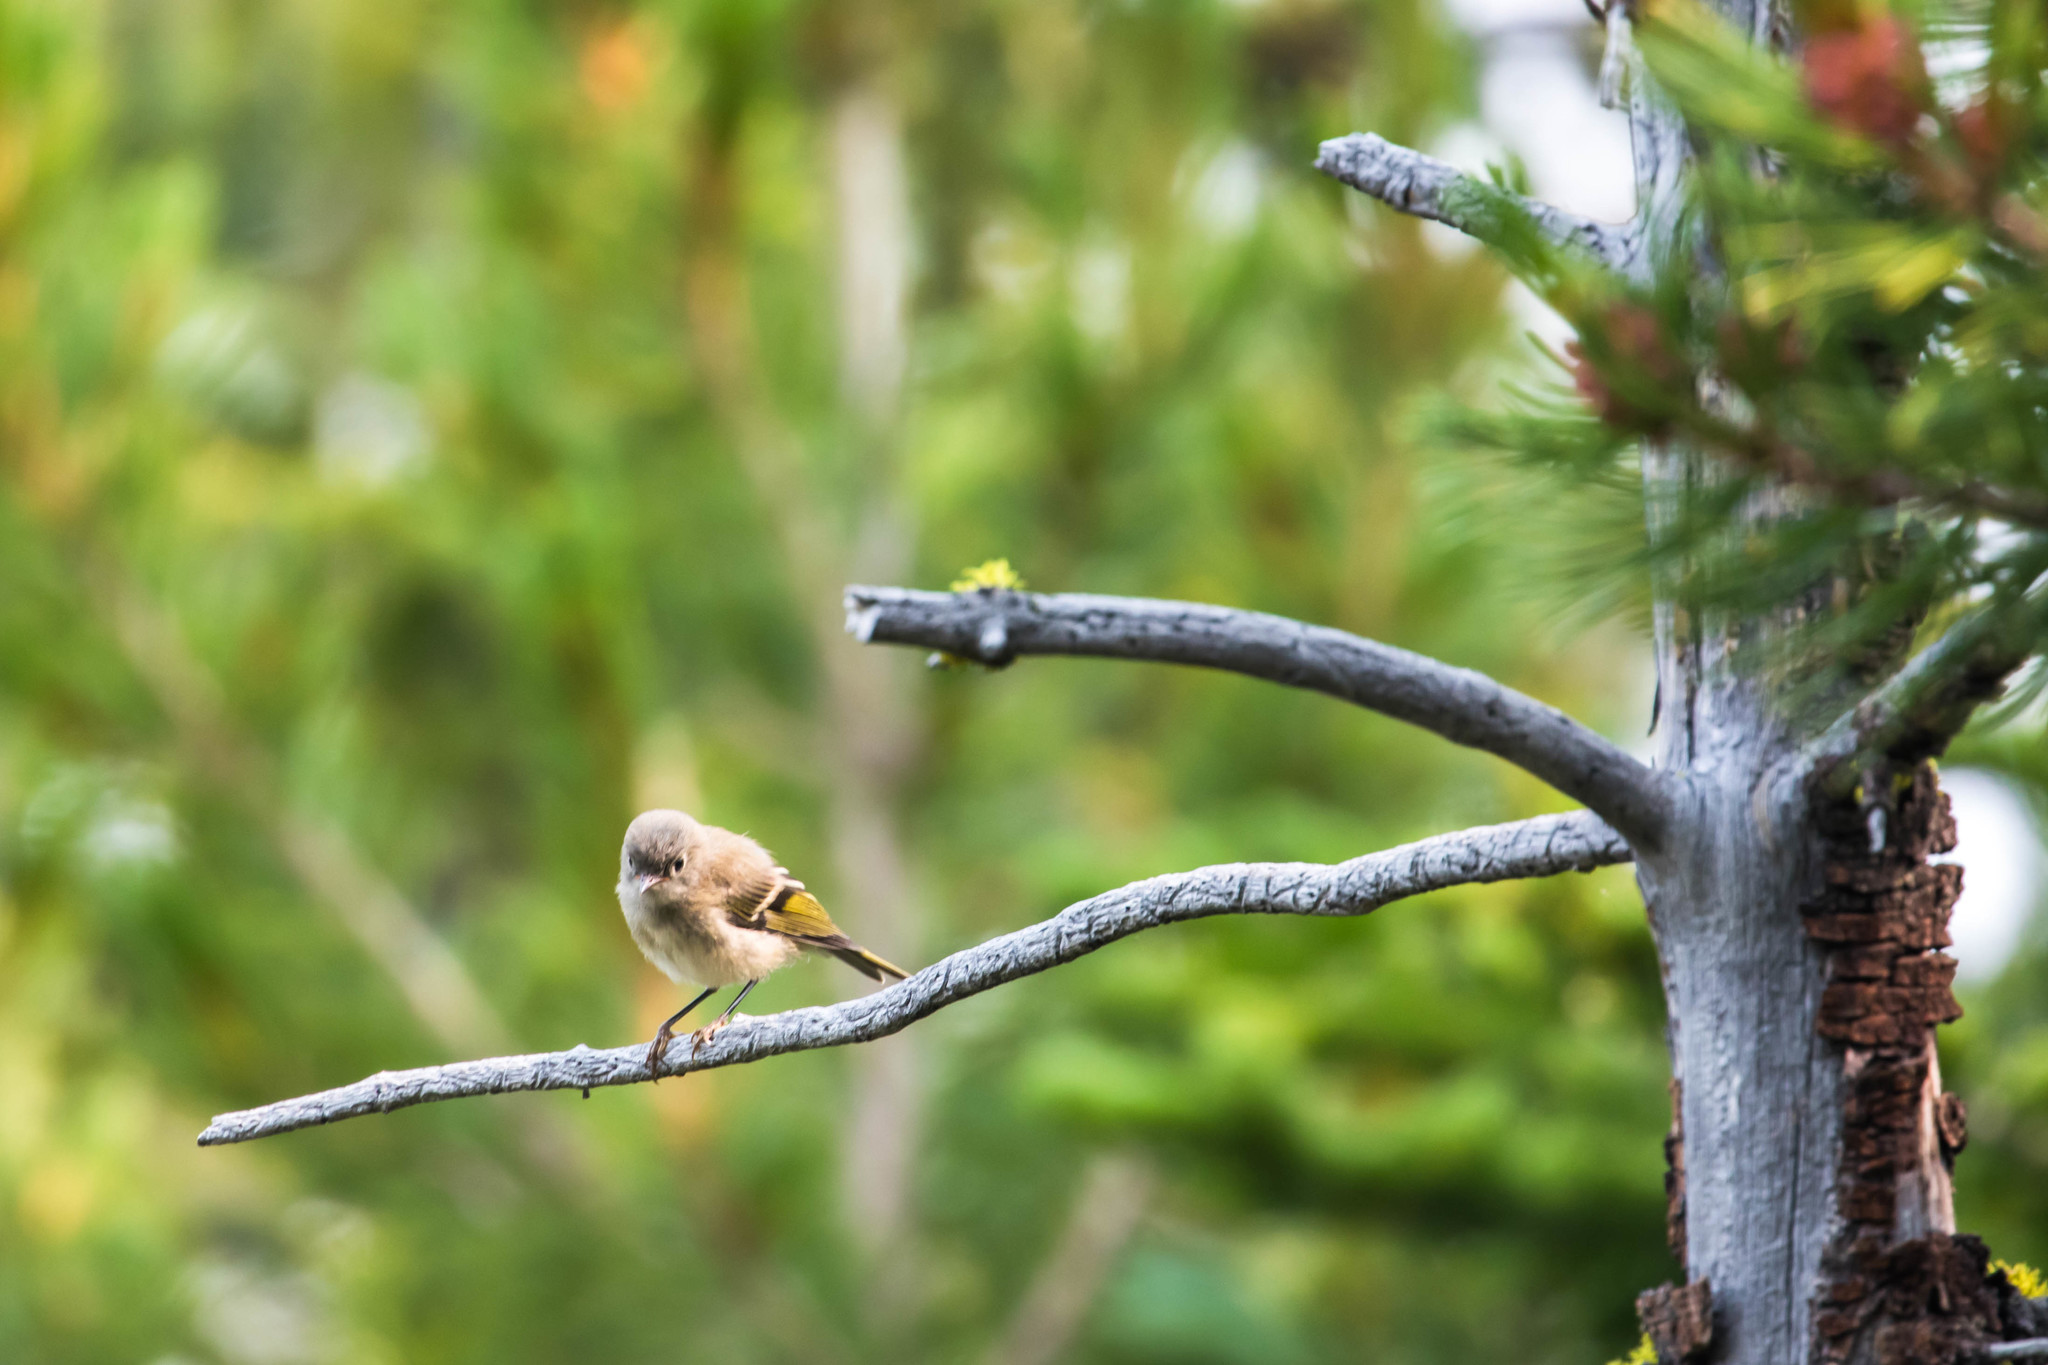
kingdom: Animalia
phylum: Chordata
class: Aves
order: Passeriformes
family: Regulidae
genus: Regulus
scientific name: Regulus calendula
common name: Ruby-crowned kinglet
